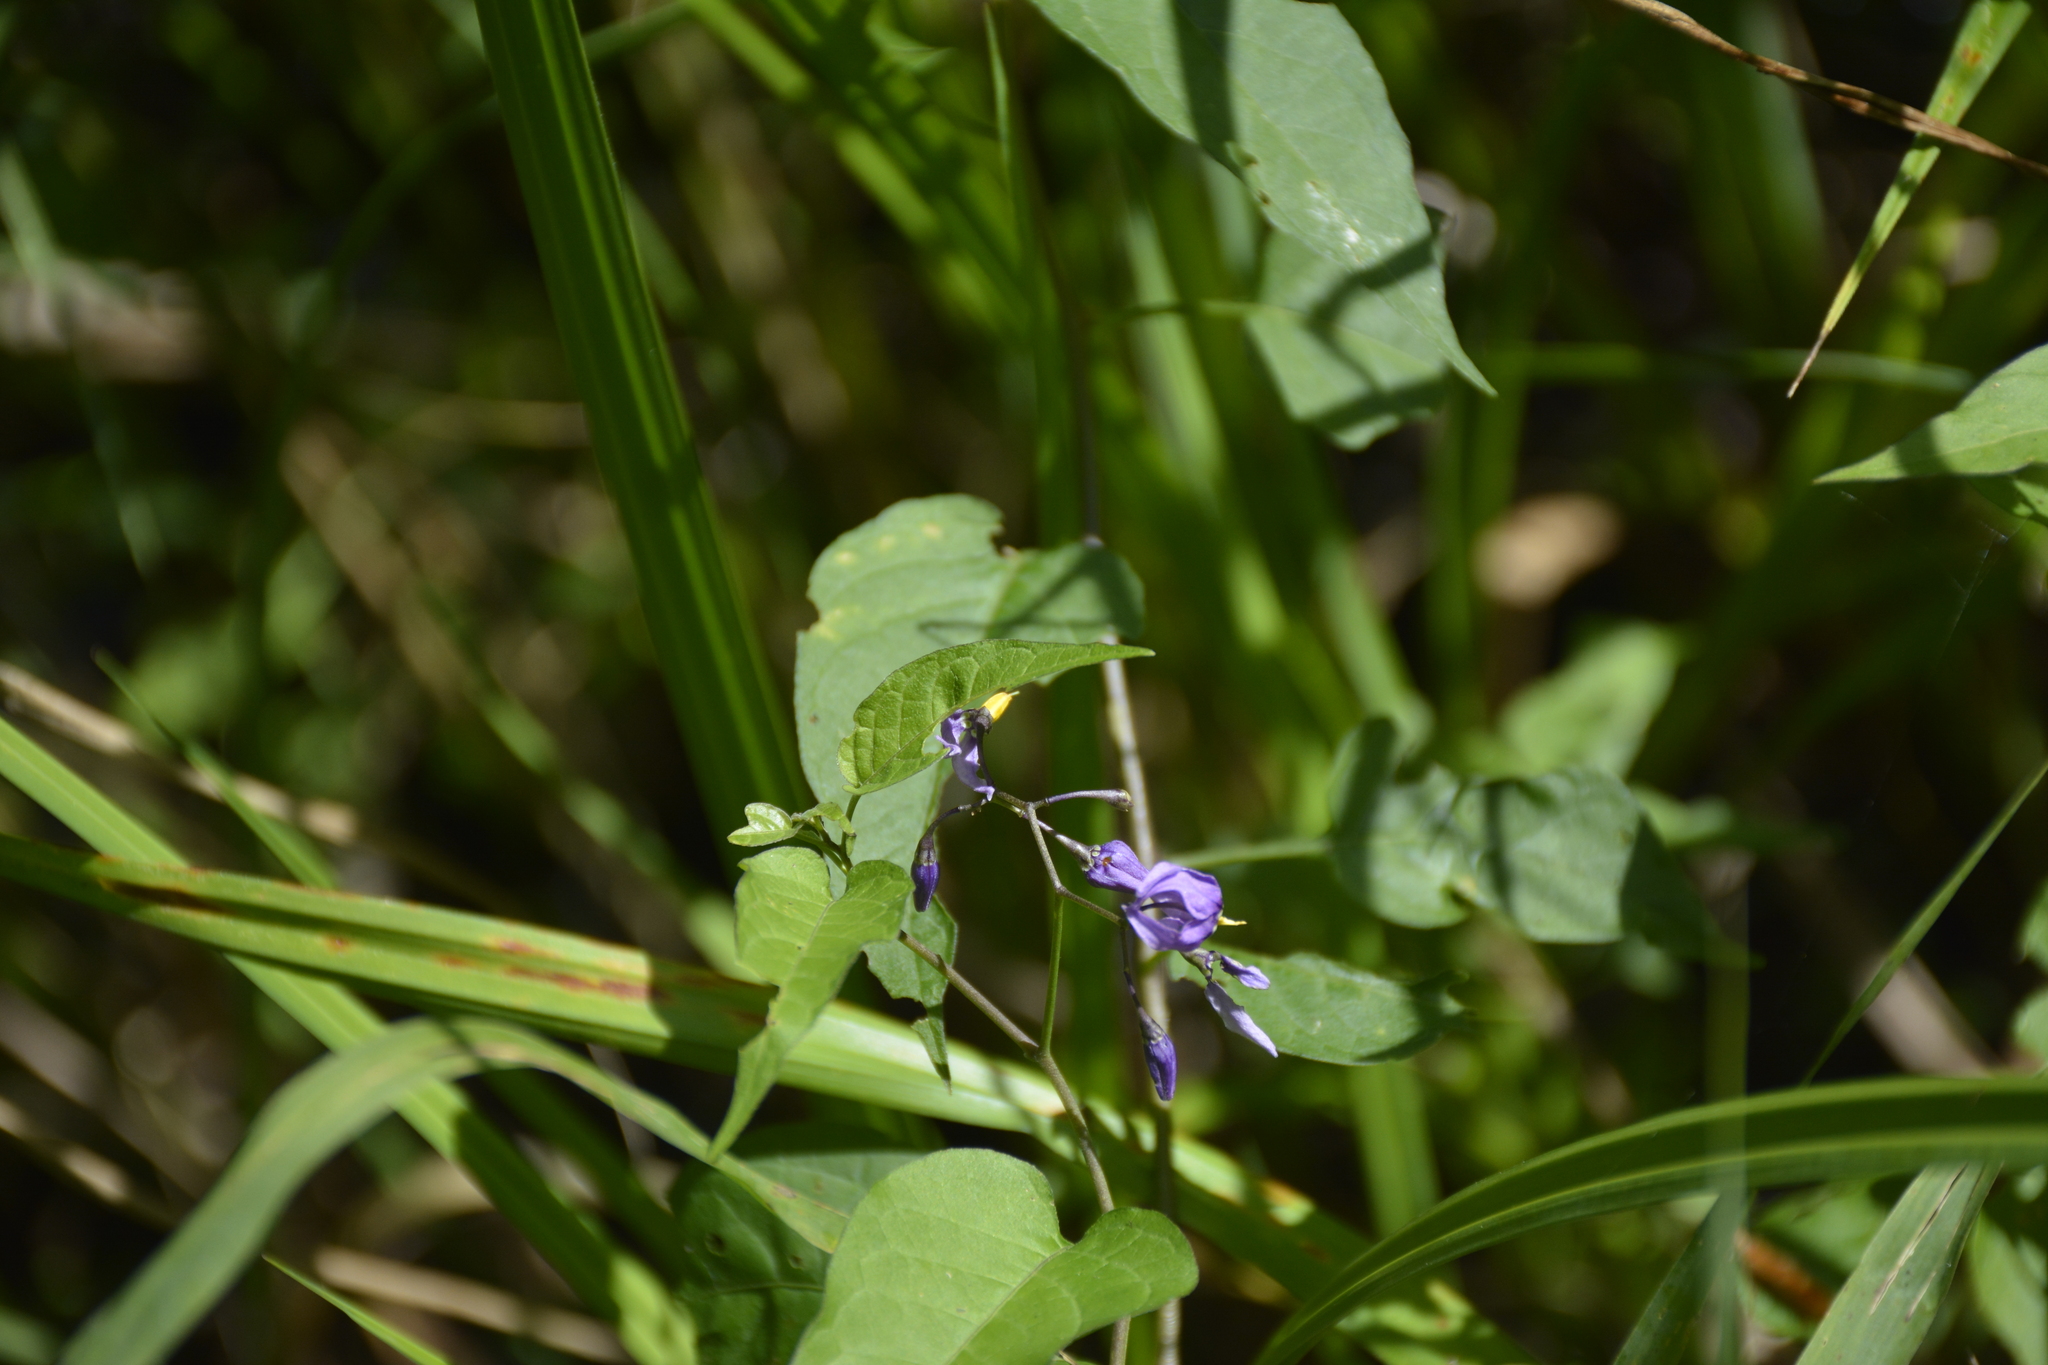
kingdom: Plantae
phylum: Tracheophyta
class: Magnoliopsida
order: Solanales
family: Solanaceae
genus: Solanum
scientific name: Solanum dulcamara
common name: Climbing nightshade
